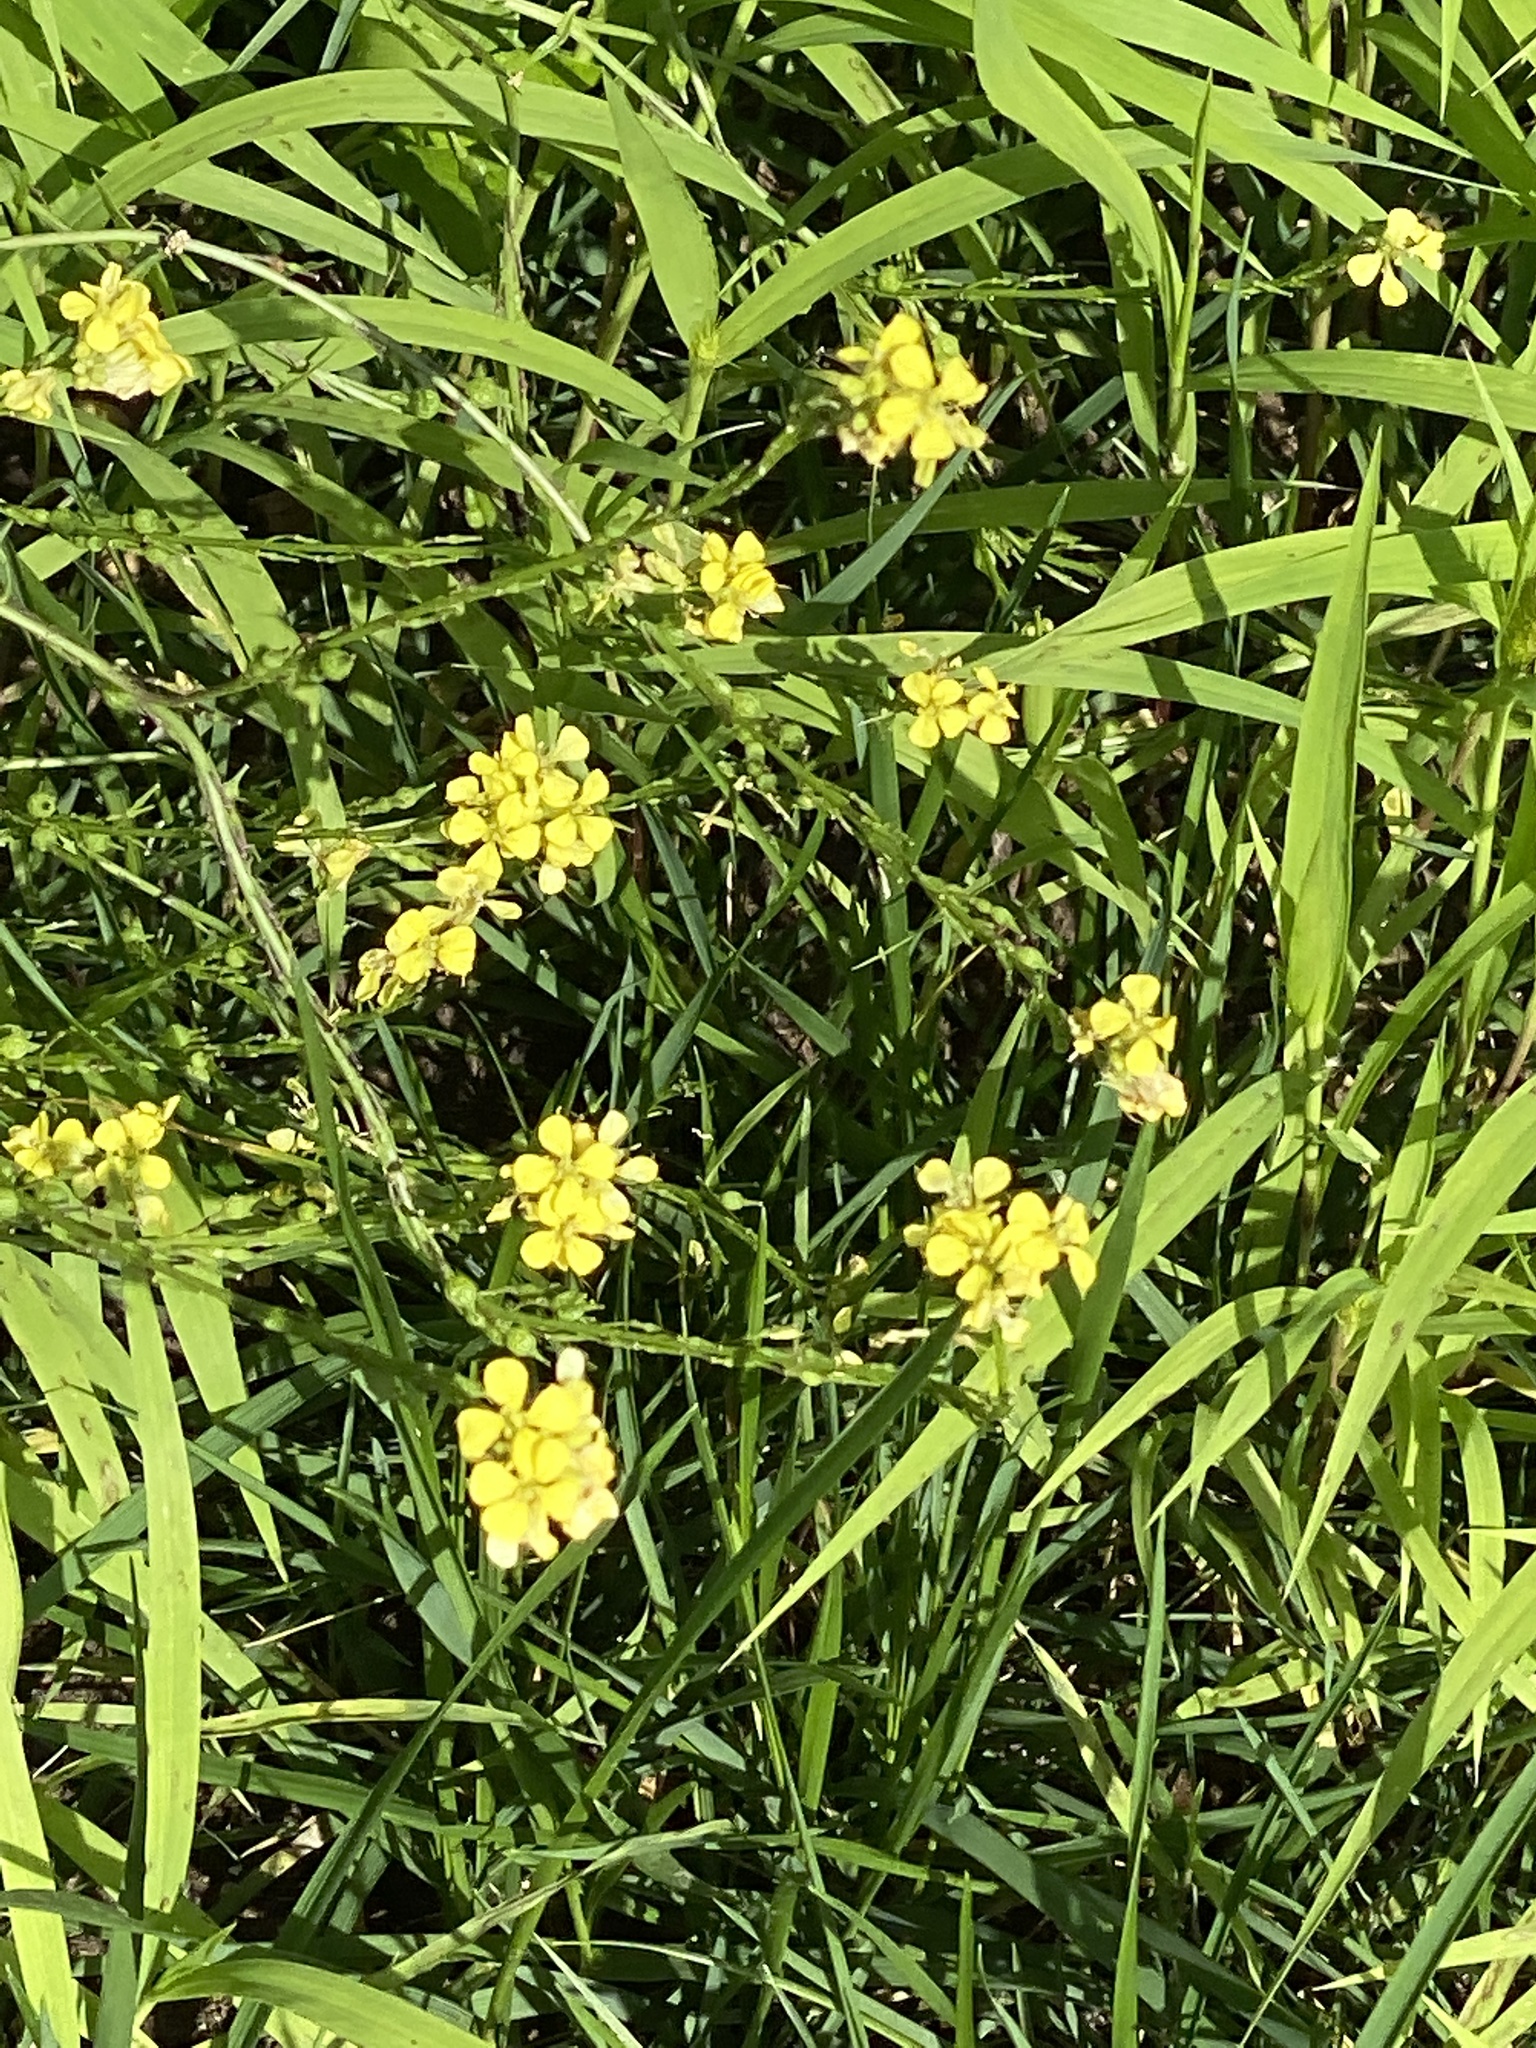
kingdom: Plantae
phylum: Tracheophyta
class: Magnoliopsida
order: Brassicales
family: Brassicaceae
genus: Rapistrum
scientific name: Rapistrum rugosum
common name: Annual bastardcabbage
